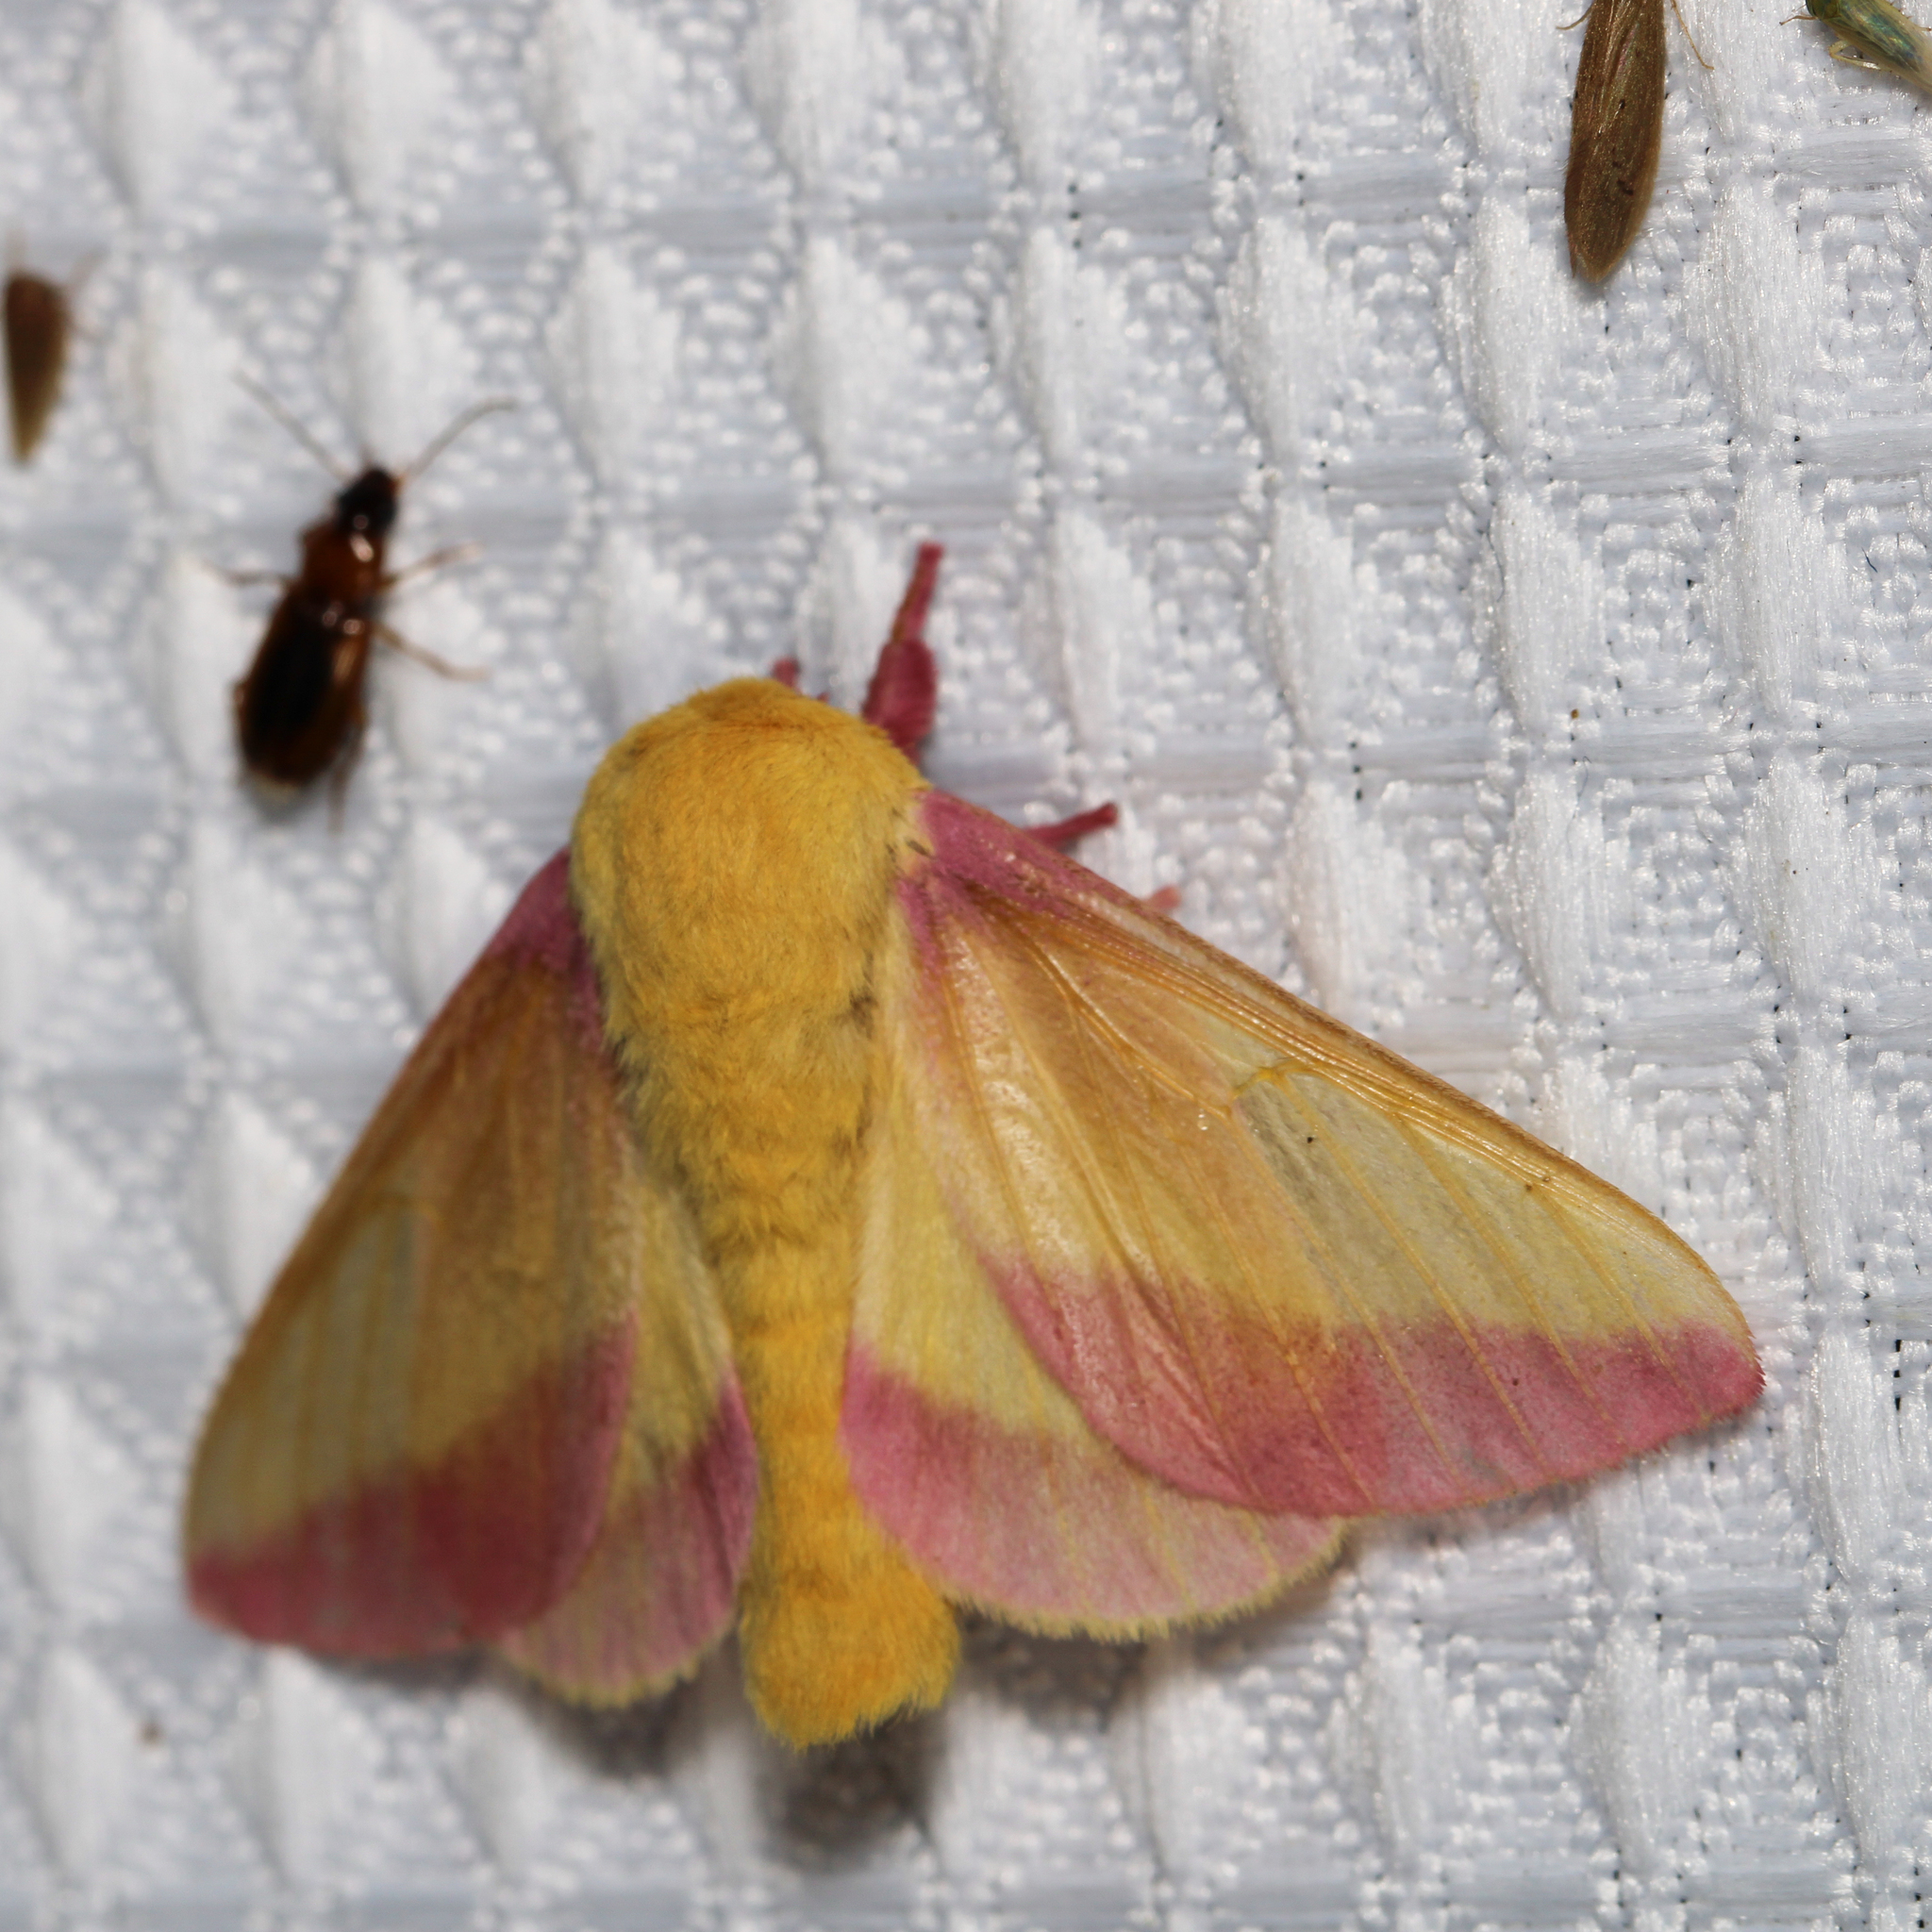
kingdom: Animalia
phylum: Arthropoda
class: Insecta
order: Lepidoptera
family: Saturniidae
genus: Dryocampa
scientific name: Dryocampa rubicunda
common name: Rosy maple moth
